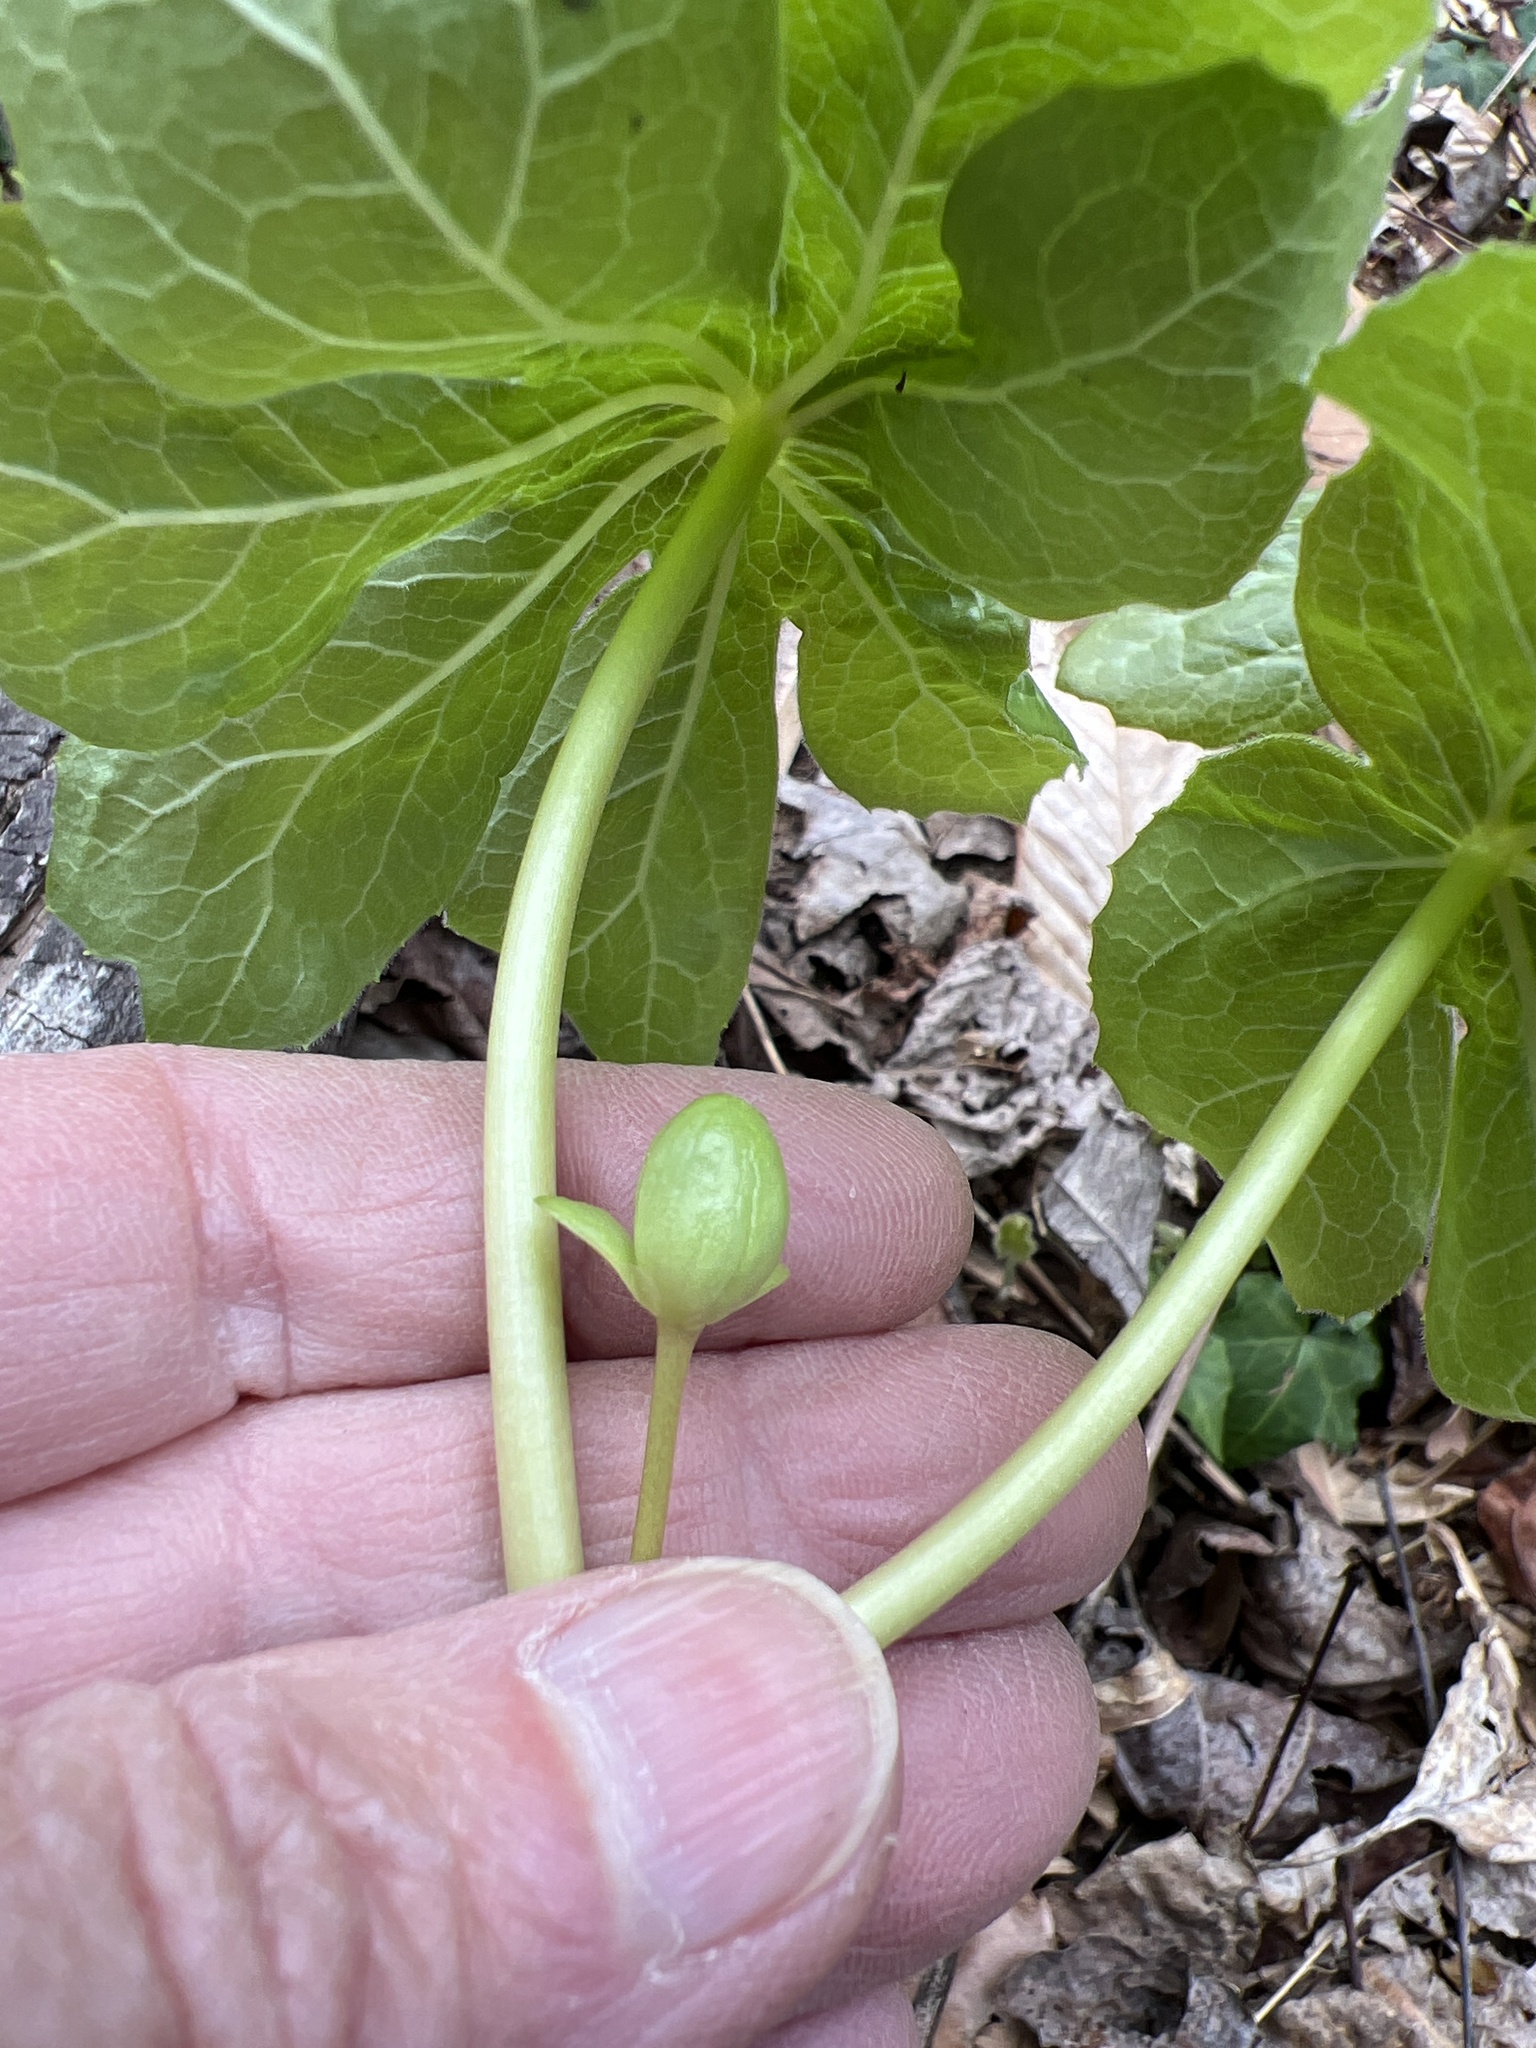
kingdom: Plantae
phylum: Tracheophyta
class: Magnoliopsida
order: Ranunculales
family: Berberidaceae
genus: Podophyllum
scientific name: Podophyllum peltatum
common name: Wild mandrake
